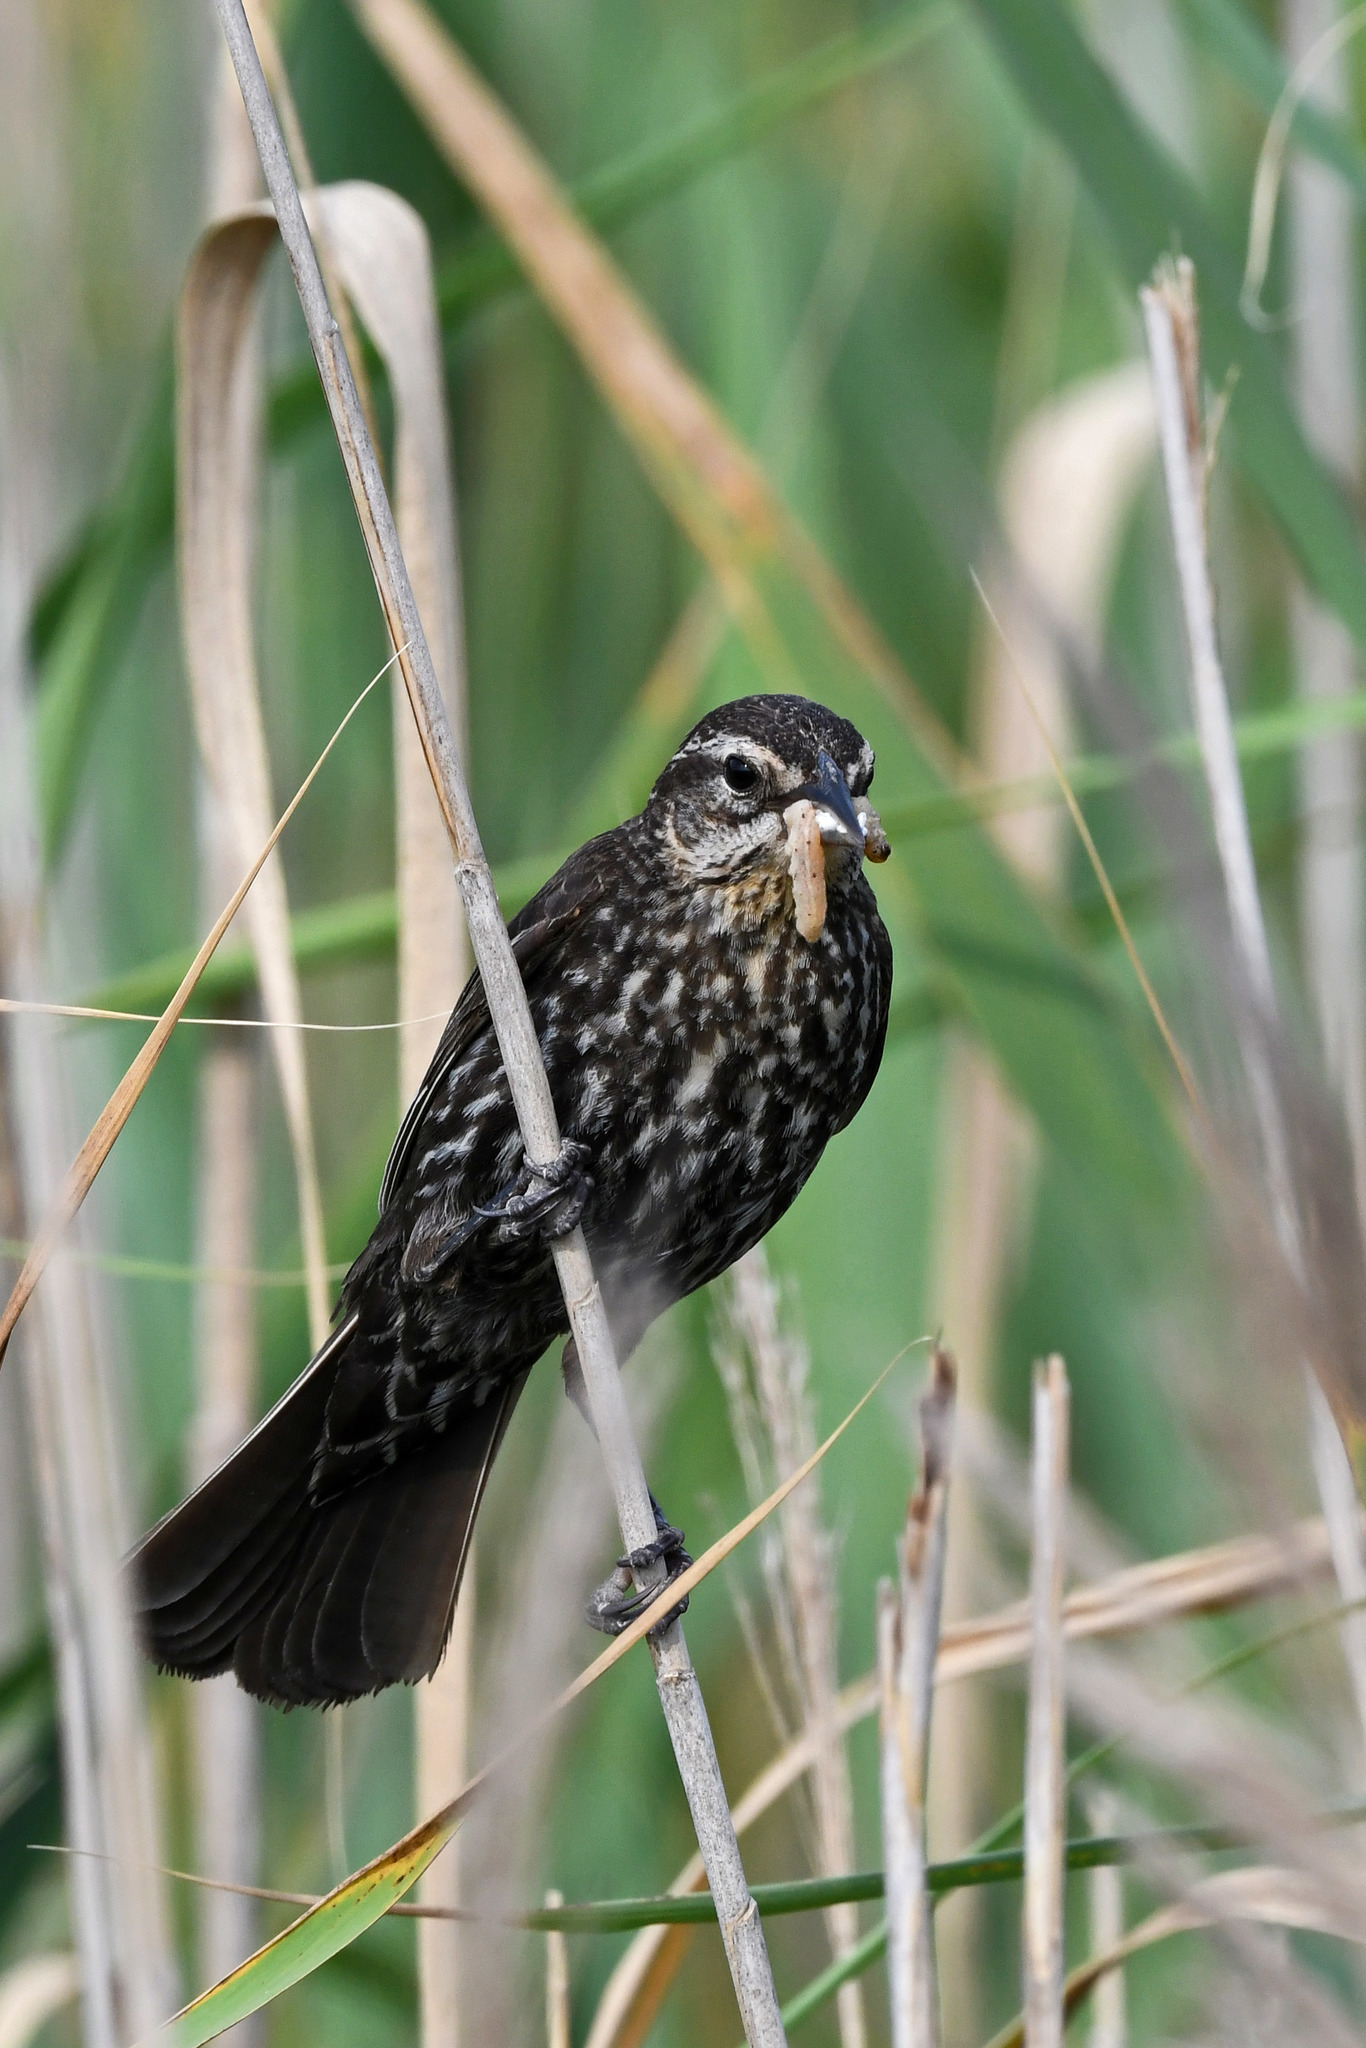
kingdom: Animalia
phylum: Chordata
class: Aves
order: Passeriformes
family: Icteridae
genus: Agelaius
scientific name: Agelaius phoeniceus
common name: Red-winged blackbird
